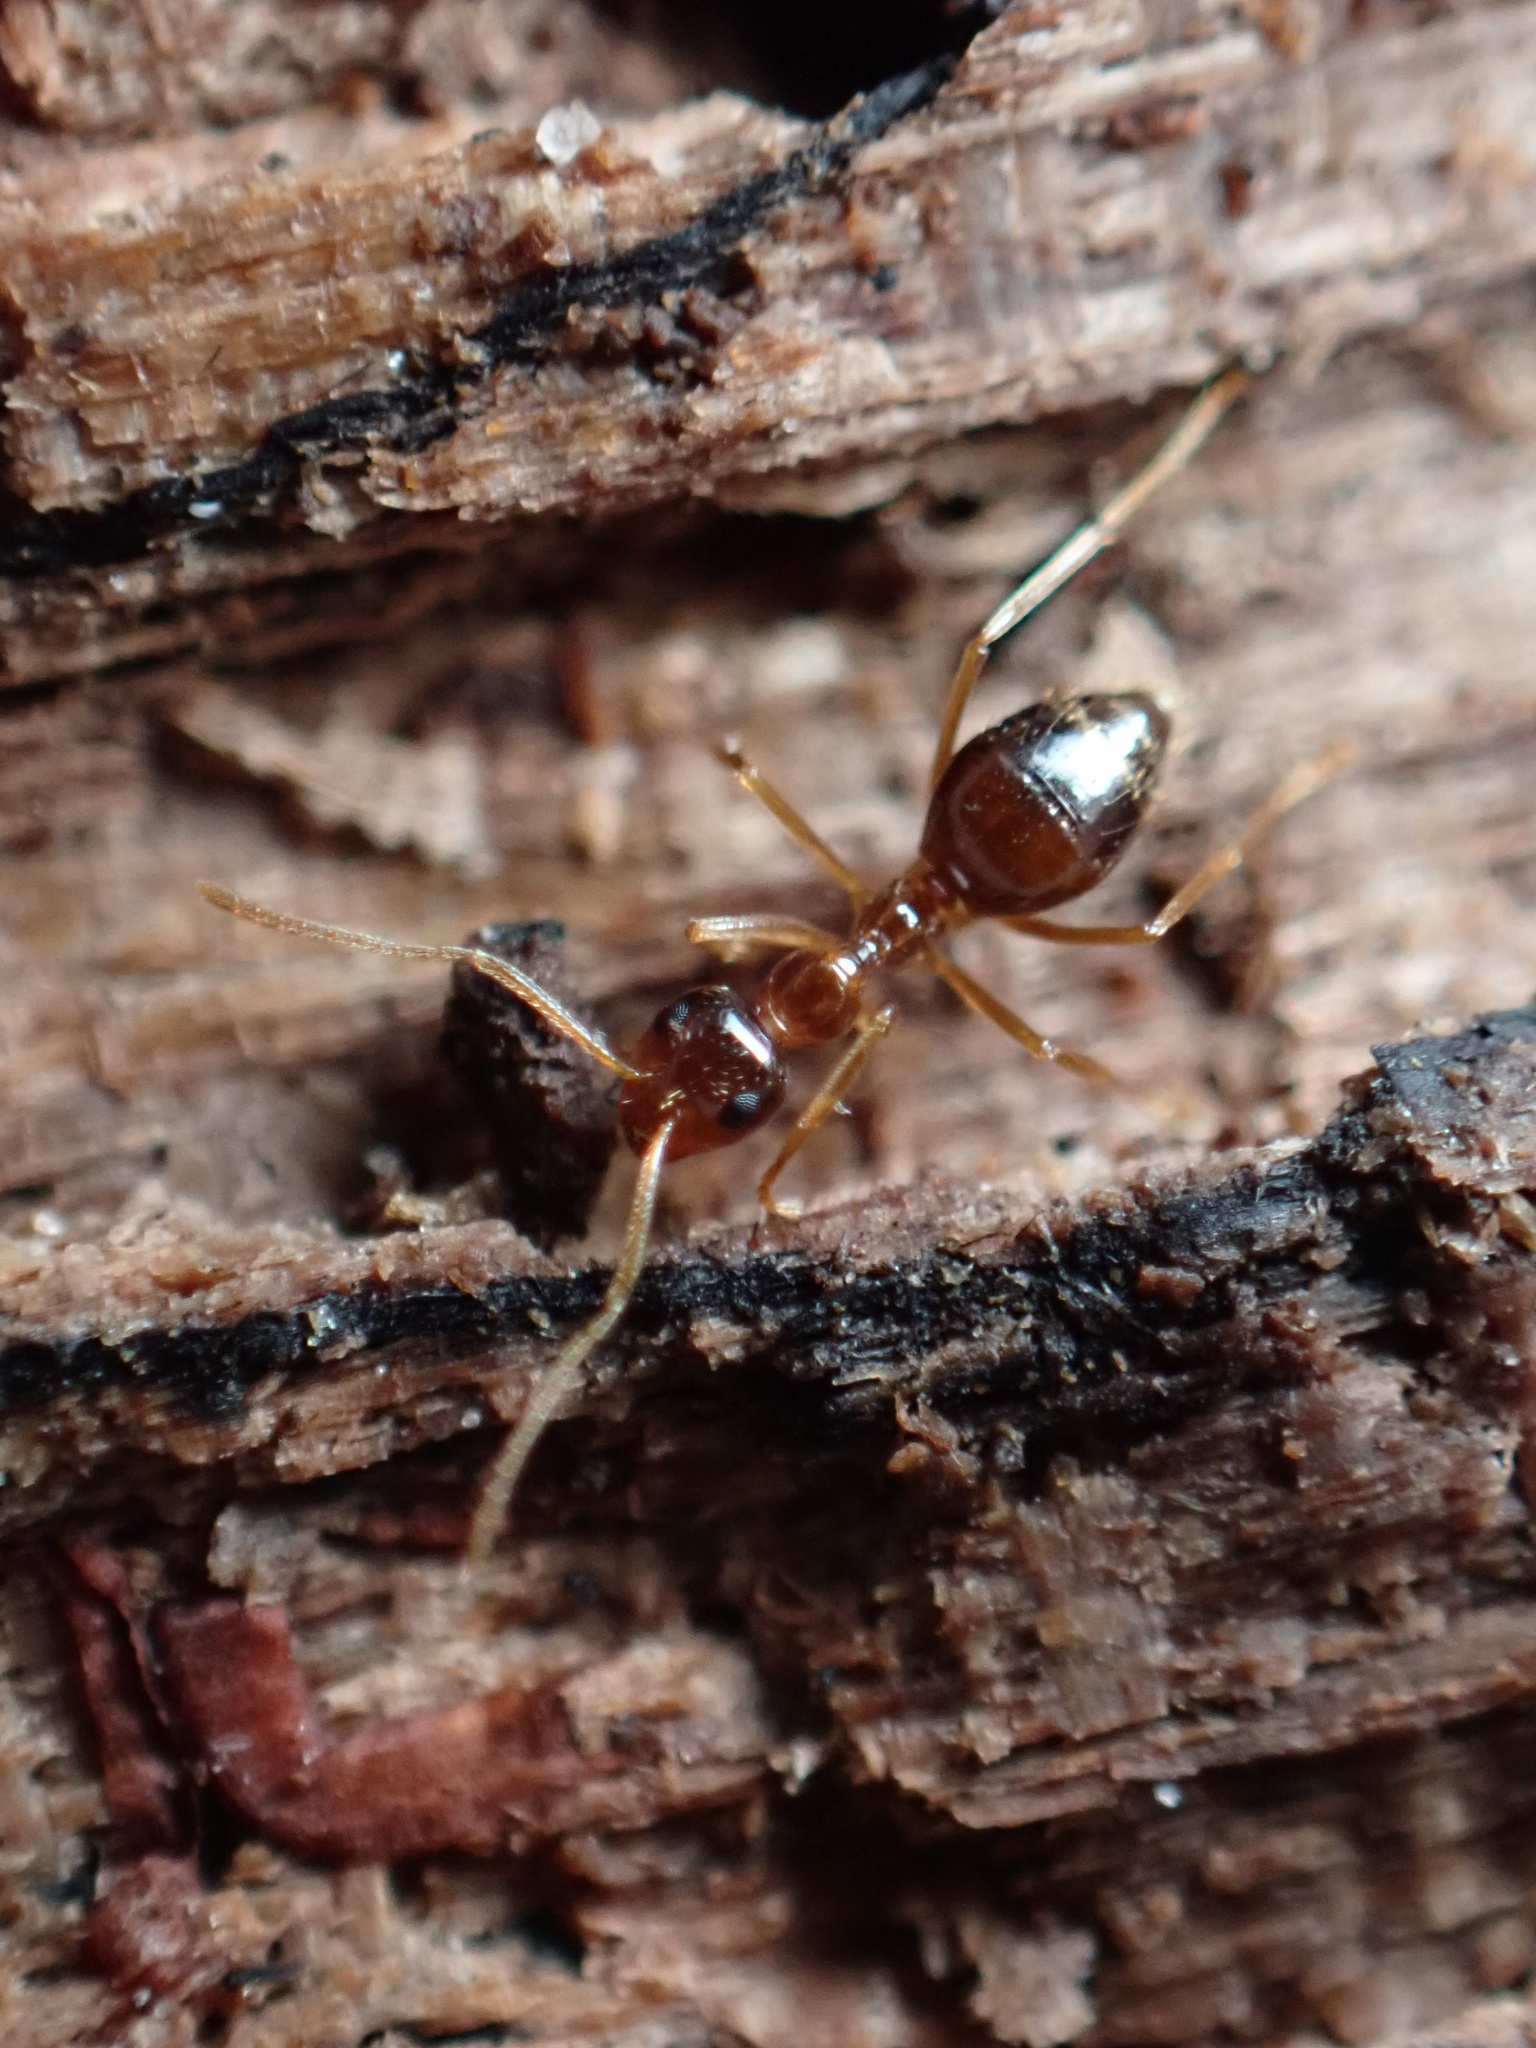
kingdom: Animalia
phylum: Arthropoda
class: Insecta
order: Hymenoptera
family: Formicidae
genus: Prenolepis
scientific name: Prenolepis imparis
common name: Small honey ant
